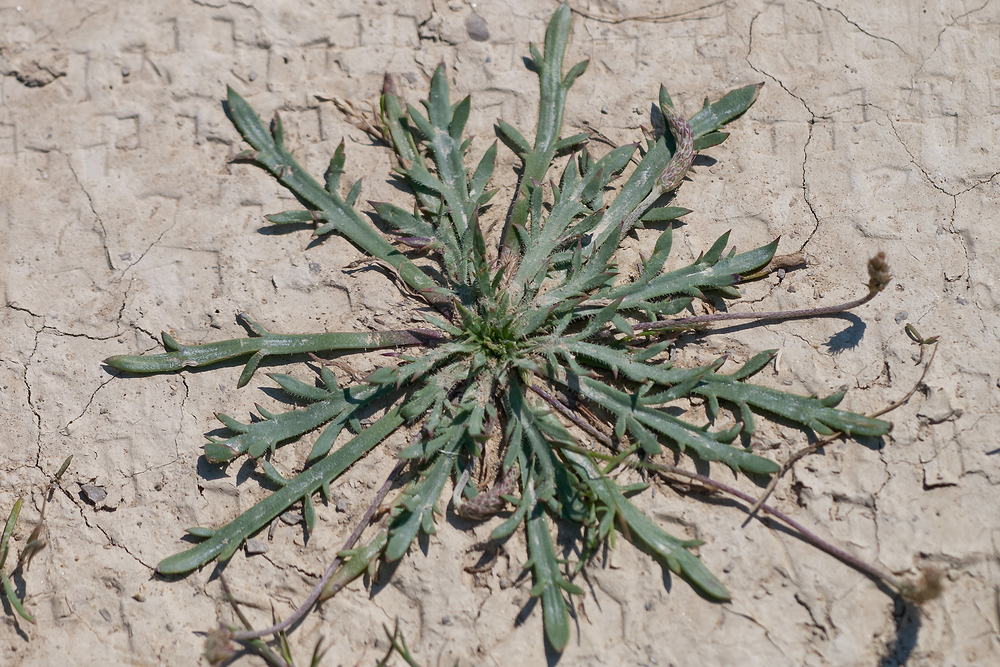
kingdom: Plantae
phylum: Tracheophyta
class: Magnoliopsida
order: Lamiales
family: Plantaginaceae
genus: Plantago
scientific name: Plantago coronopus
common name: Buck's-horn plantain
